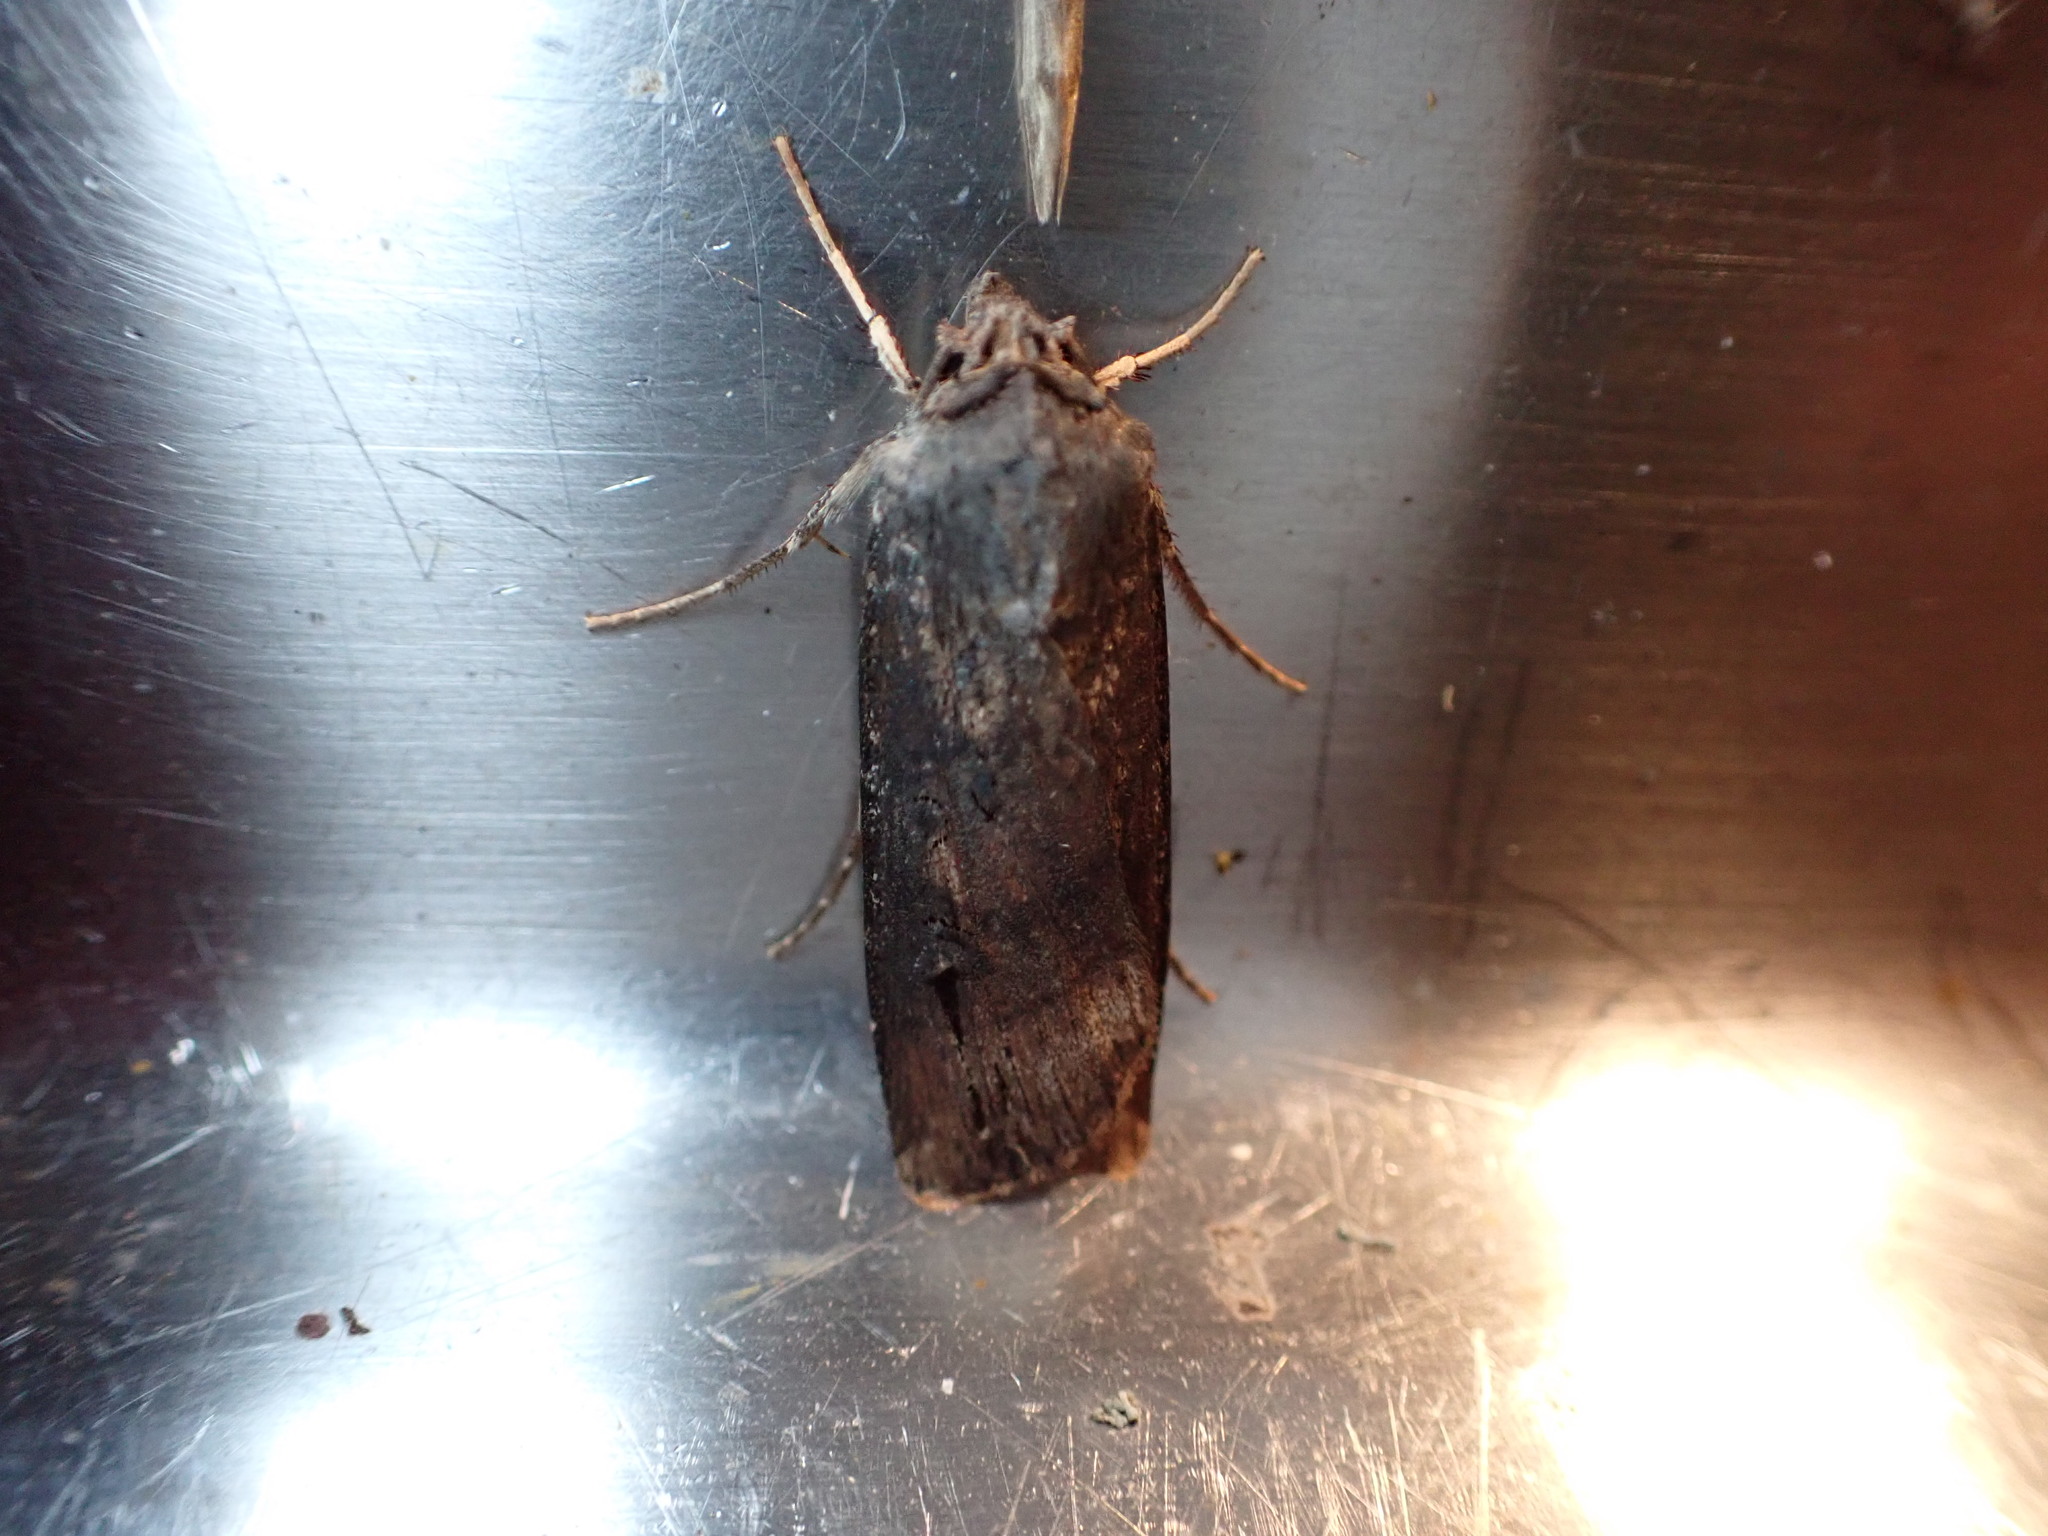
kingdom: Animalia
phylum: Arthropoda
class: Insecta
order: Lepidoptera
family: Noctuidae
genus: Agrotis
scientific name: Agrotis ipsilon
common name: Dark sword-grass
